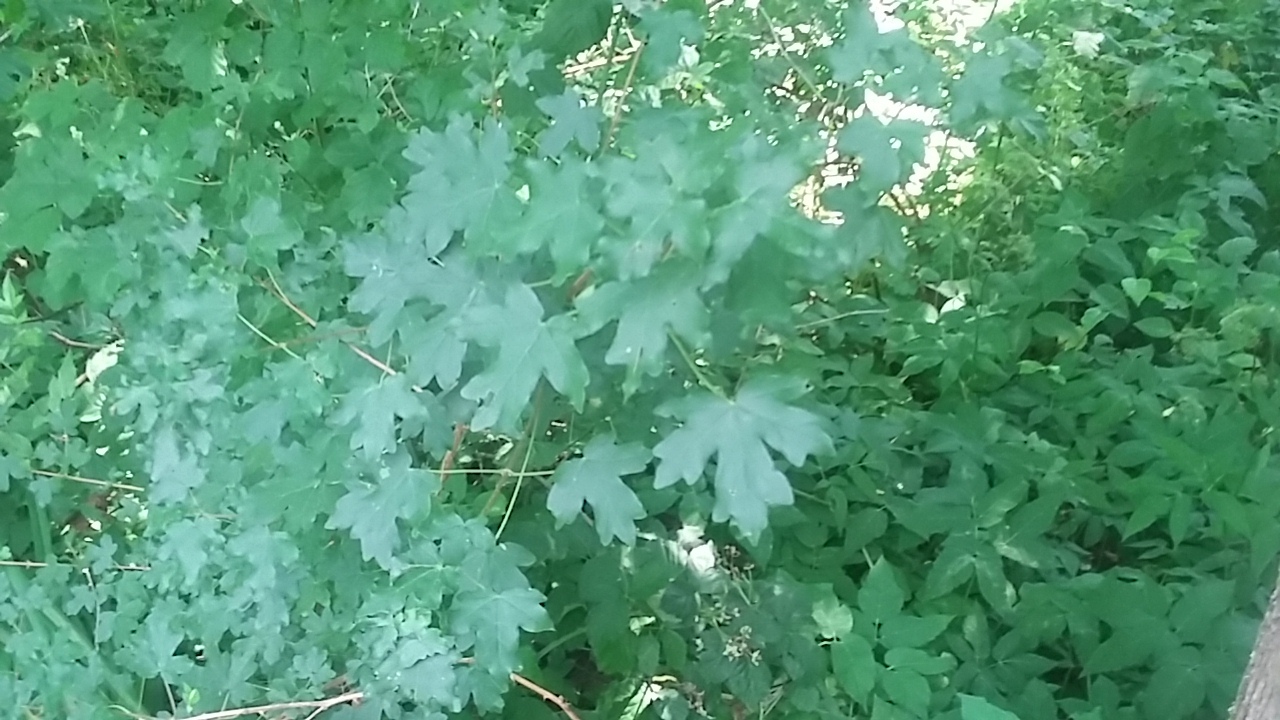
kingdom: Plantae
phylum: Tracheophyta
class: Magnoliopsida
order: Sapindales
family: Sapindaceae
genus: Acer
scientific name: Acer campestre
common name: Field maple
